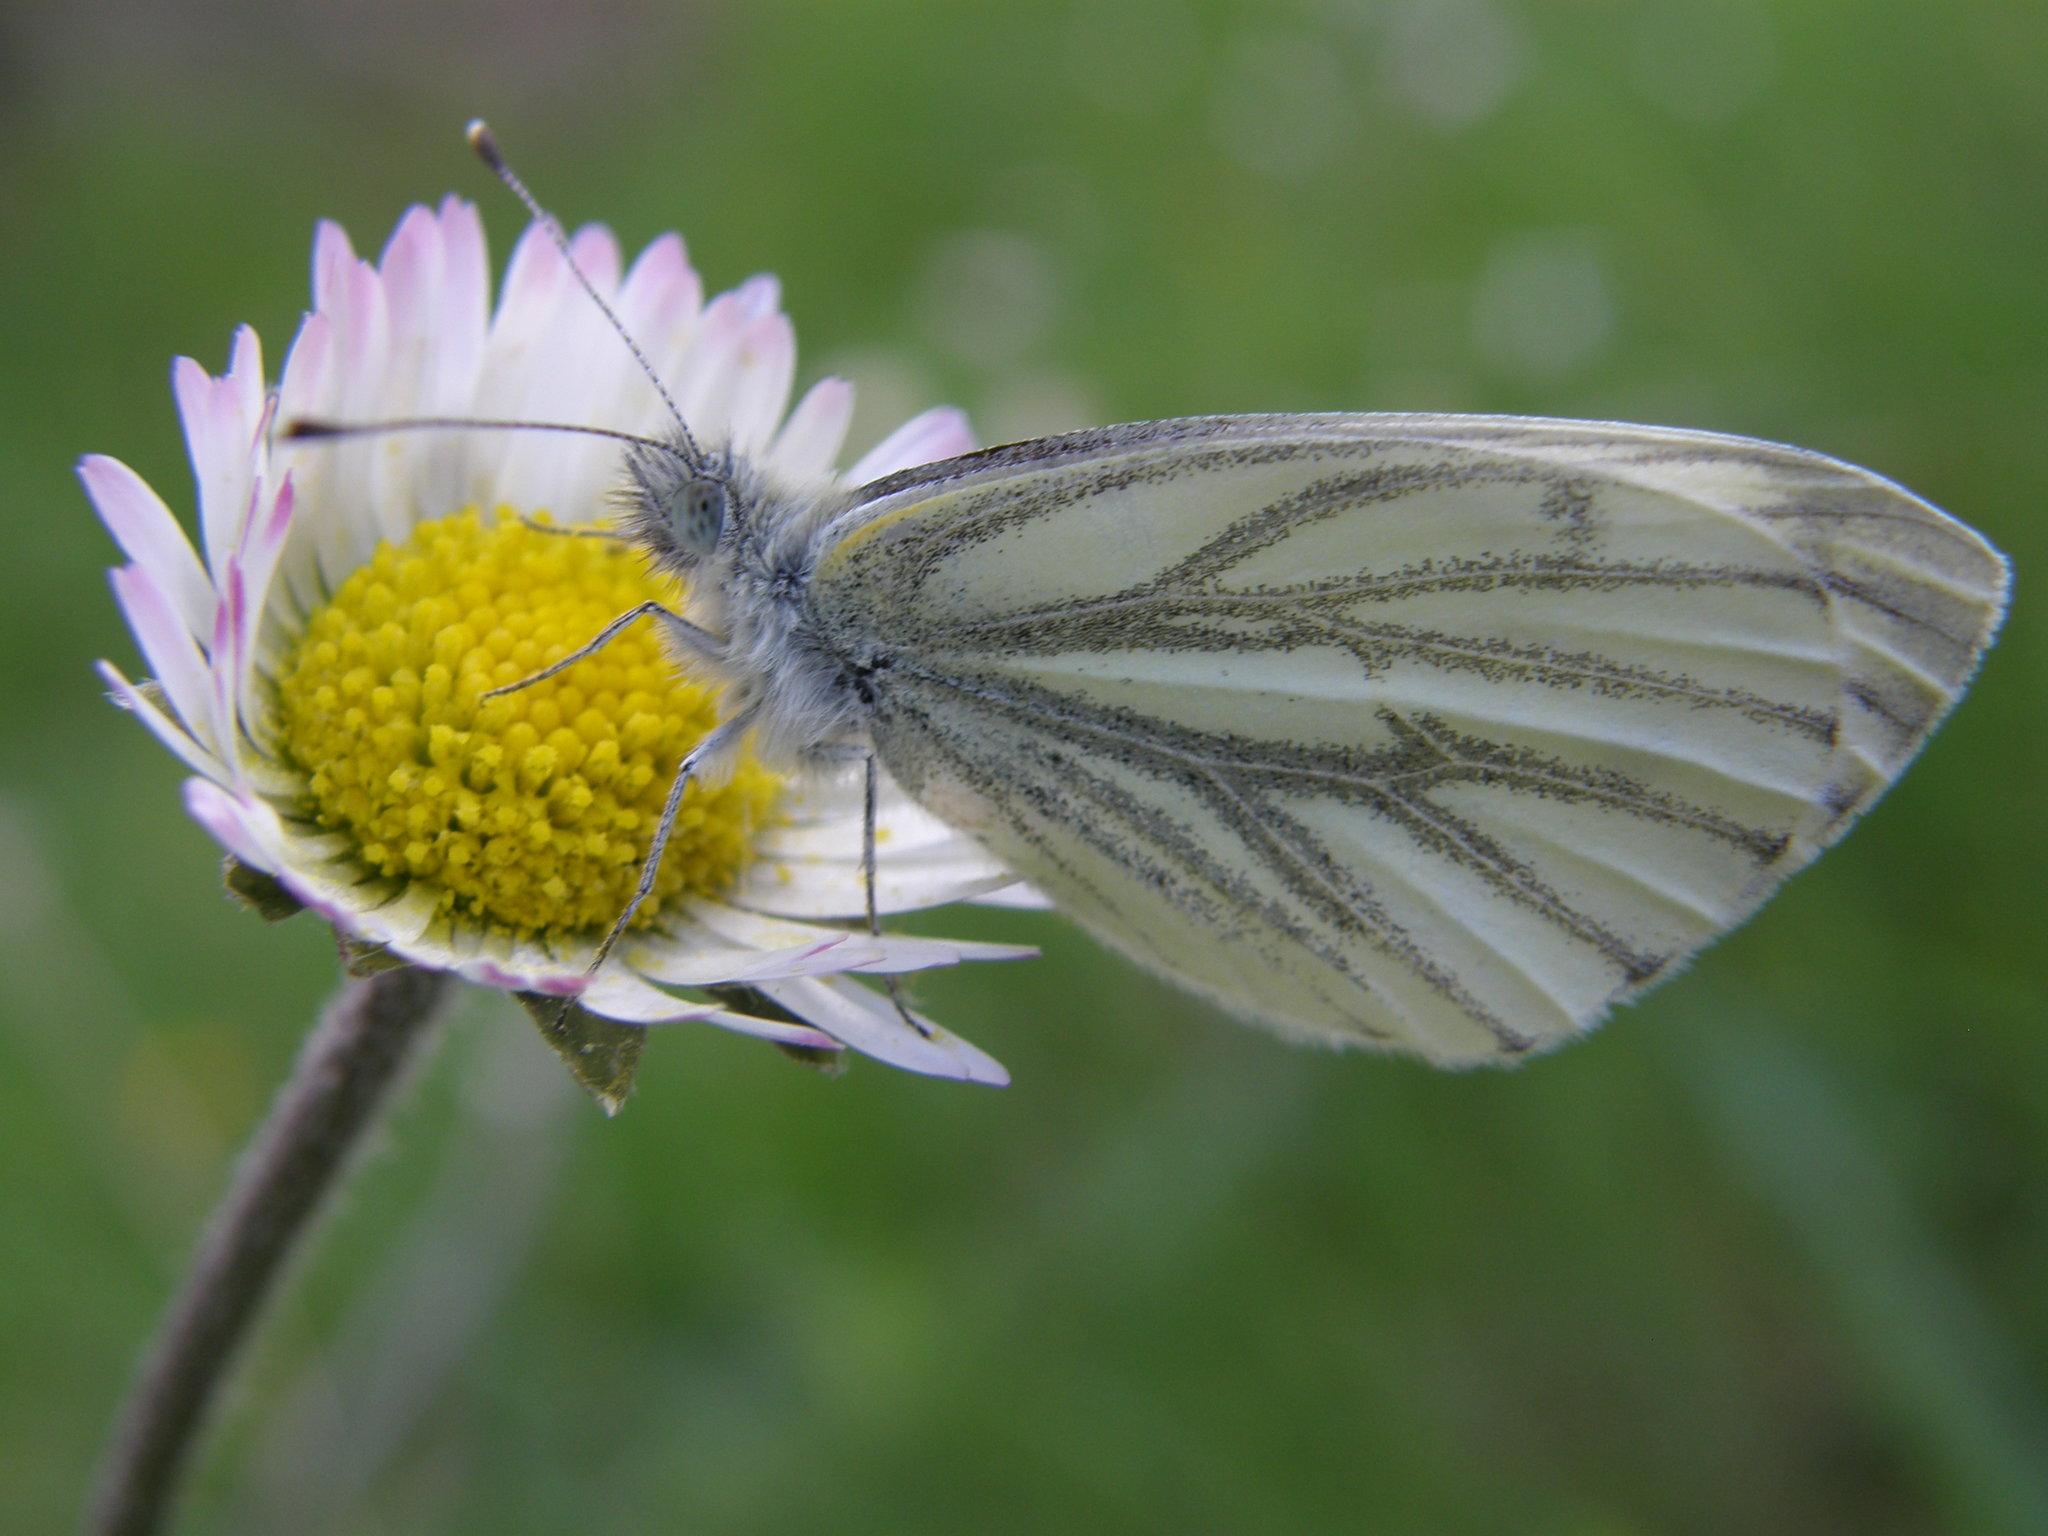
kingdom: Animalia
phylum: Arthropoda
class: Insecta
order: Lepidoptera
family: Pieridae
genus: Pieris
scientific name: Pieris napi
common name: Green-veined white
